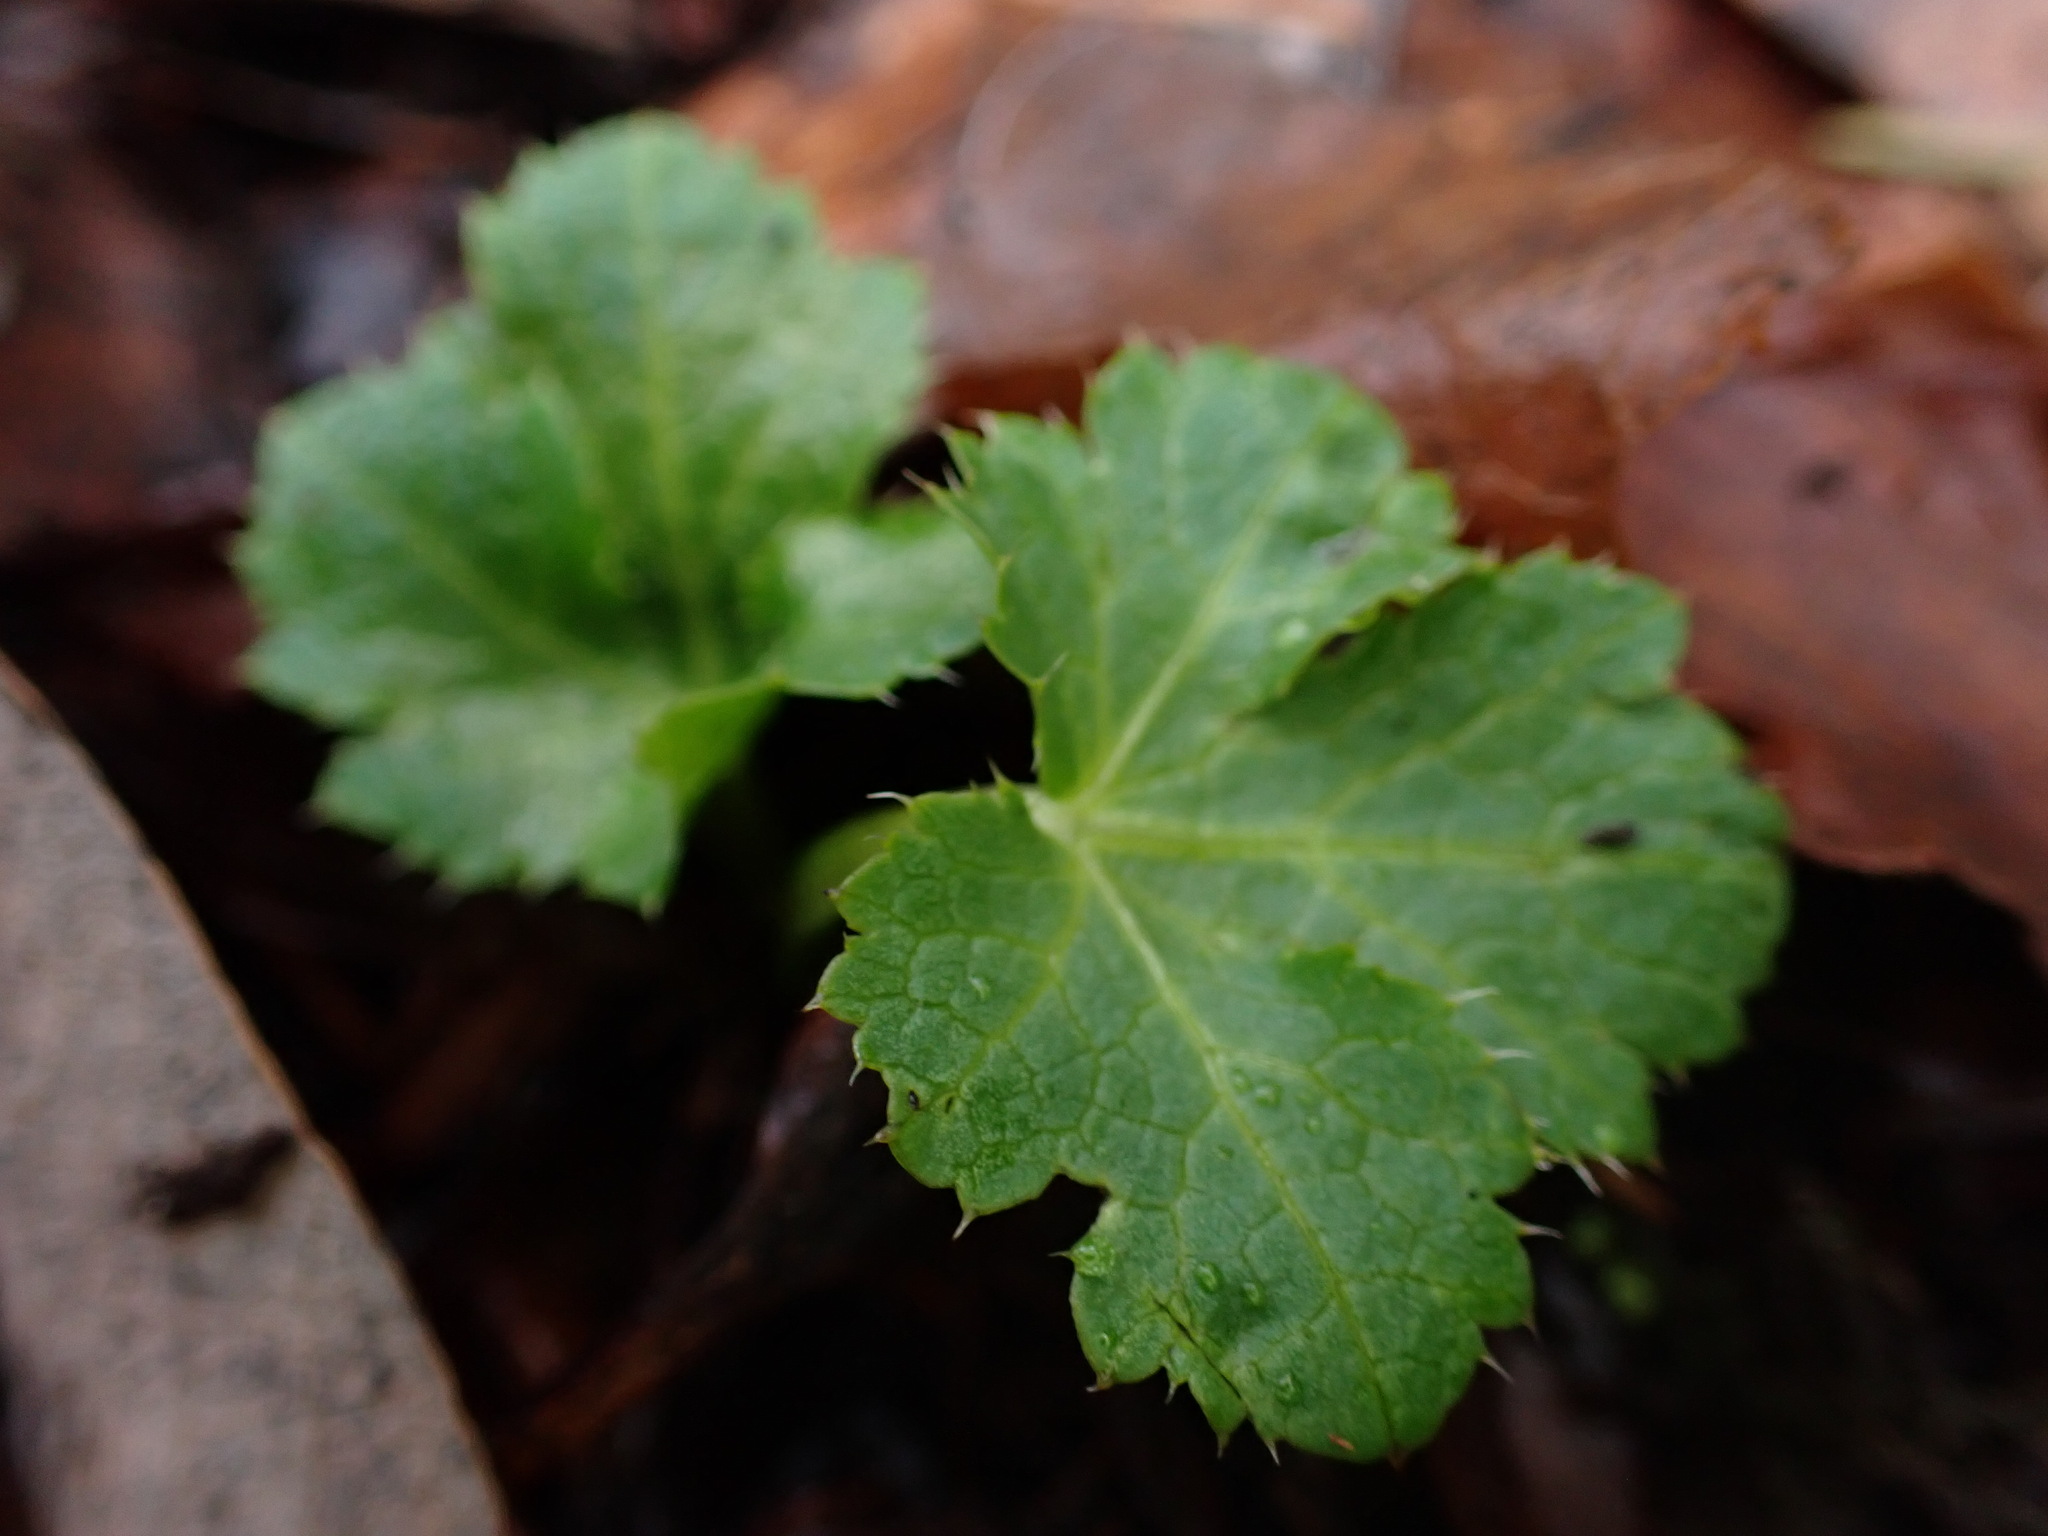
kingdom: Plantae
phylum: Tracheophyta
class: Magnoliopsida
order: Apiales
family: Apiaceae
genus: Sanicula
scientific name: Sanicula crassicaulis
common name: Western snakeroot
